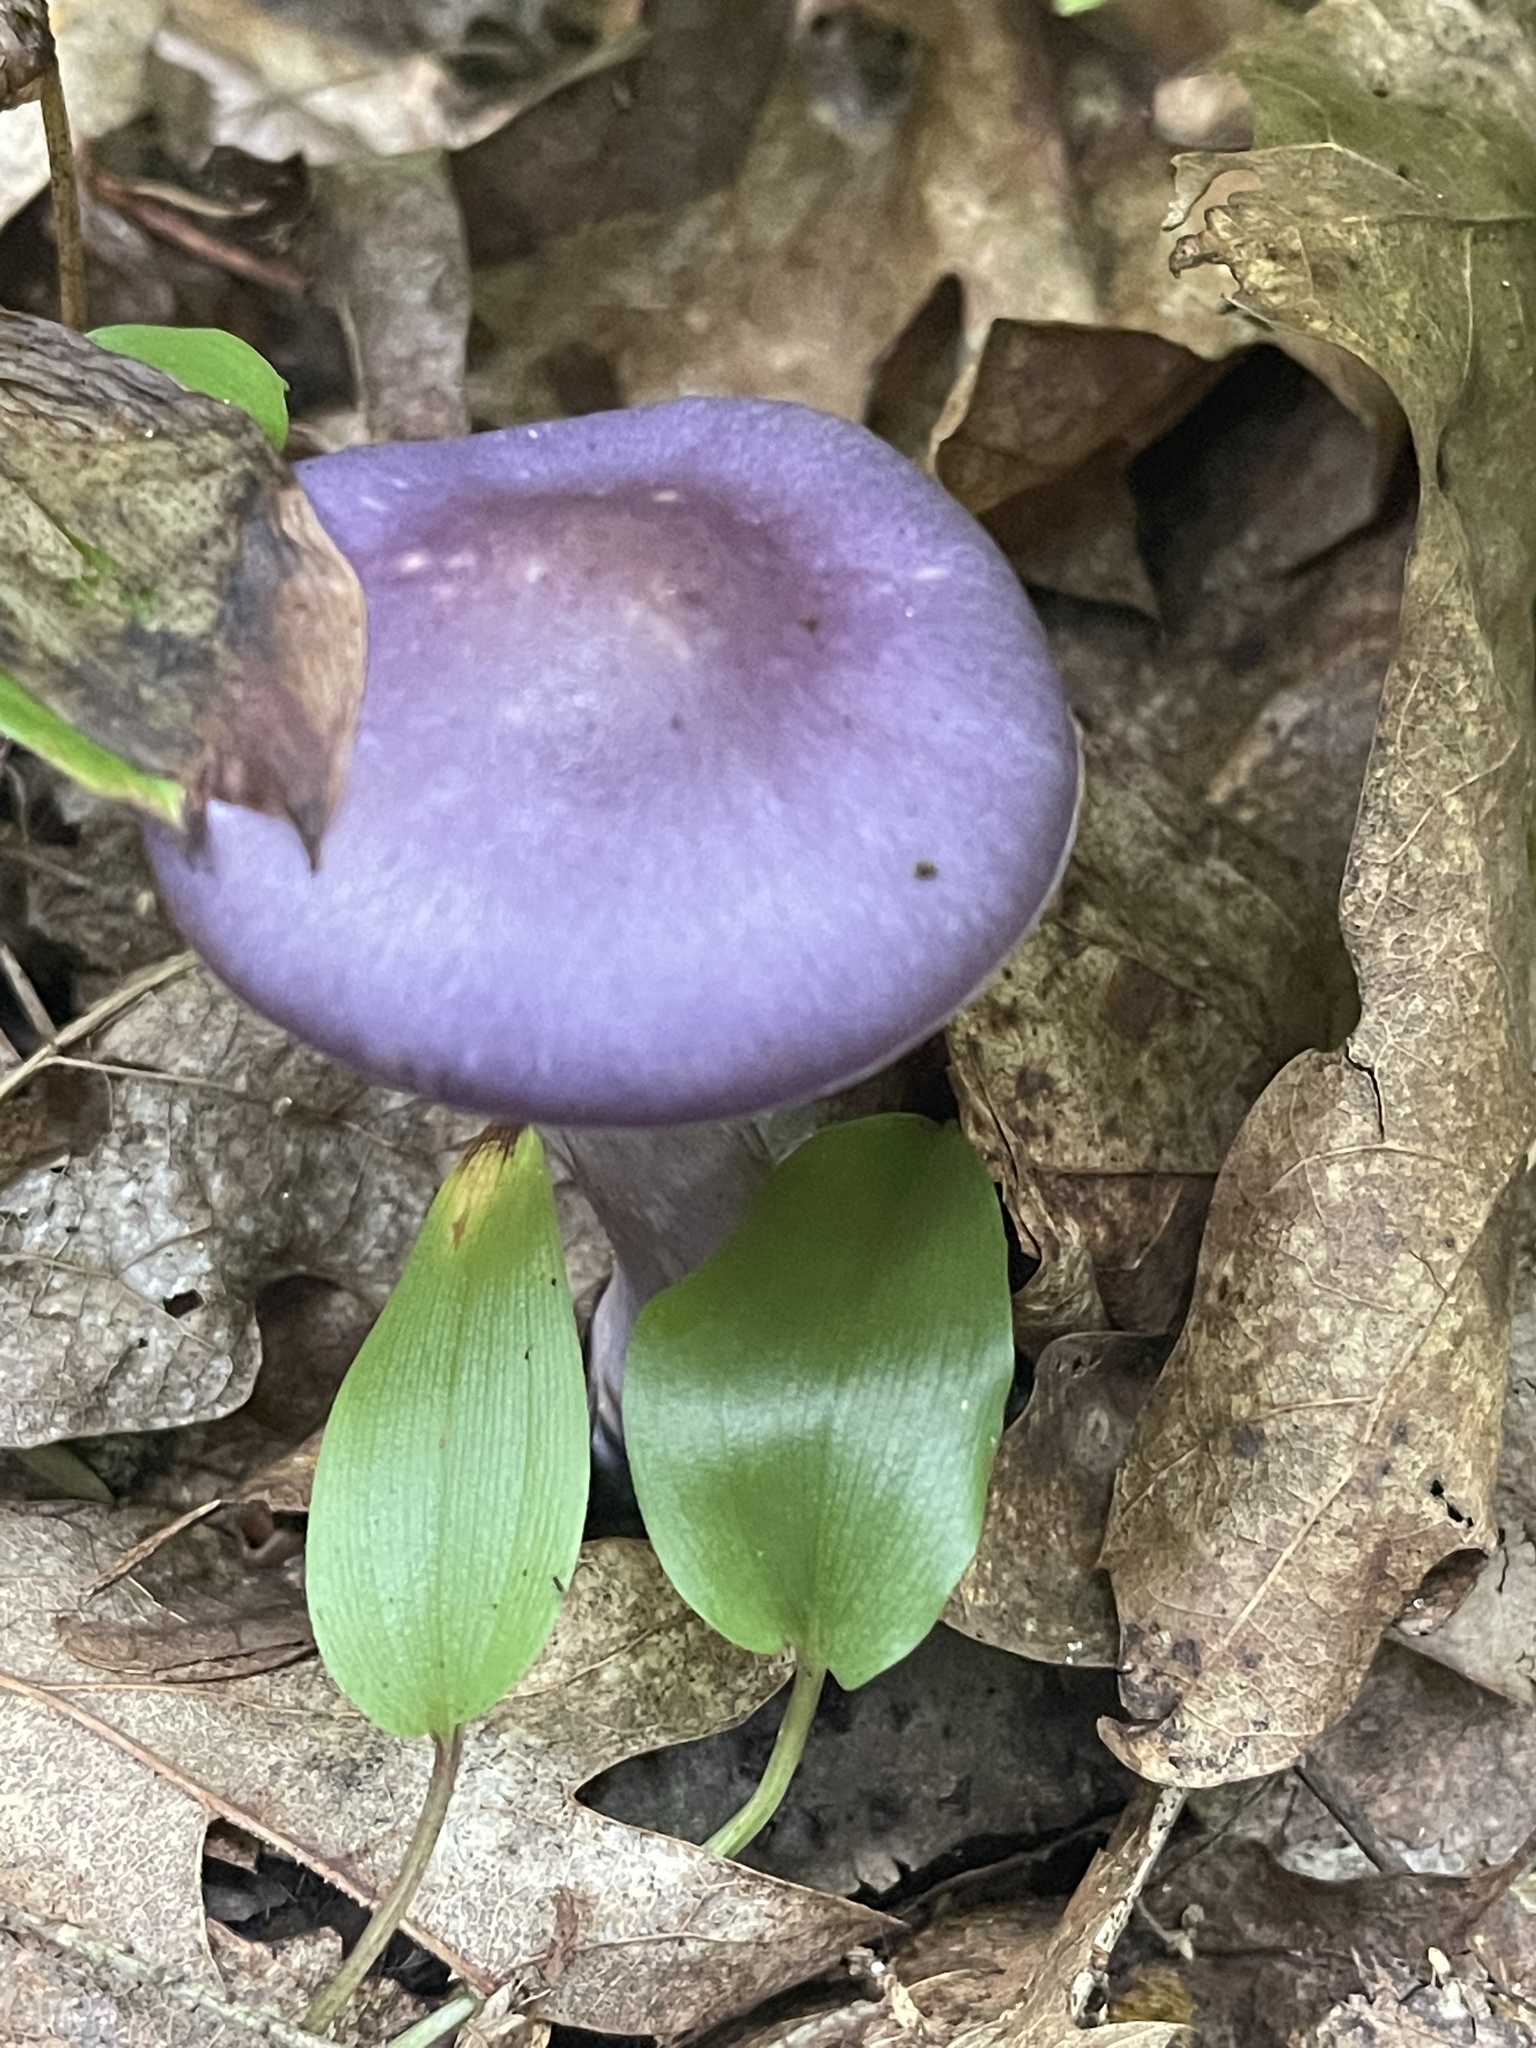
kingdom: Fungi
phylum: Basidiomycota
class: Agaricomycetes
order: Agaricales
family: Cortinariaceae
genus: Cortinarius
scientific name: Cortinarius iodes
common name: Viscid violet cort
